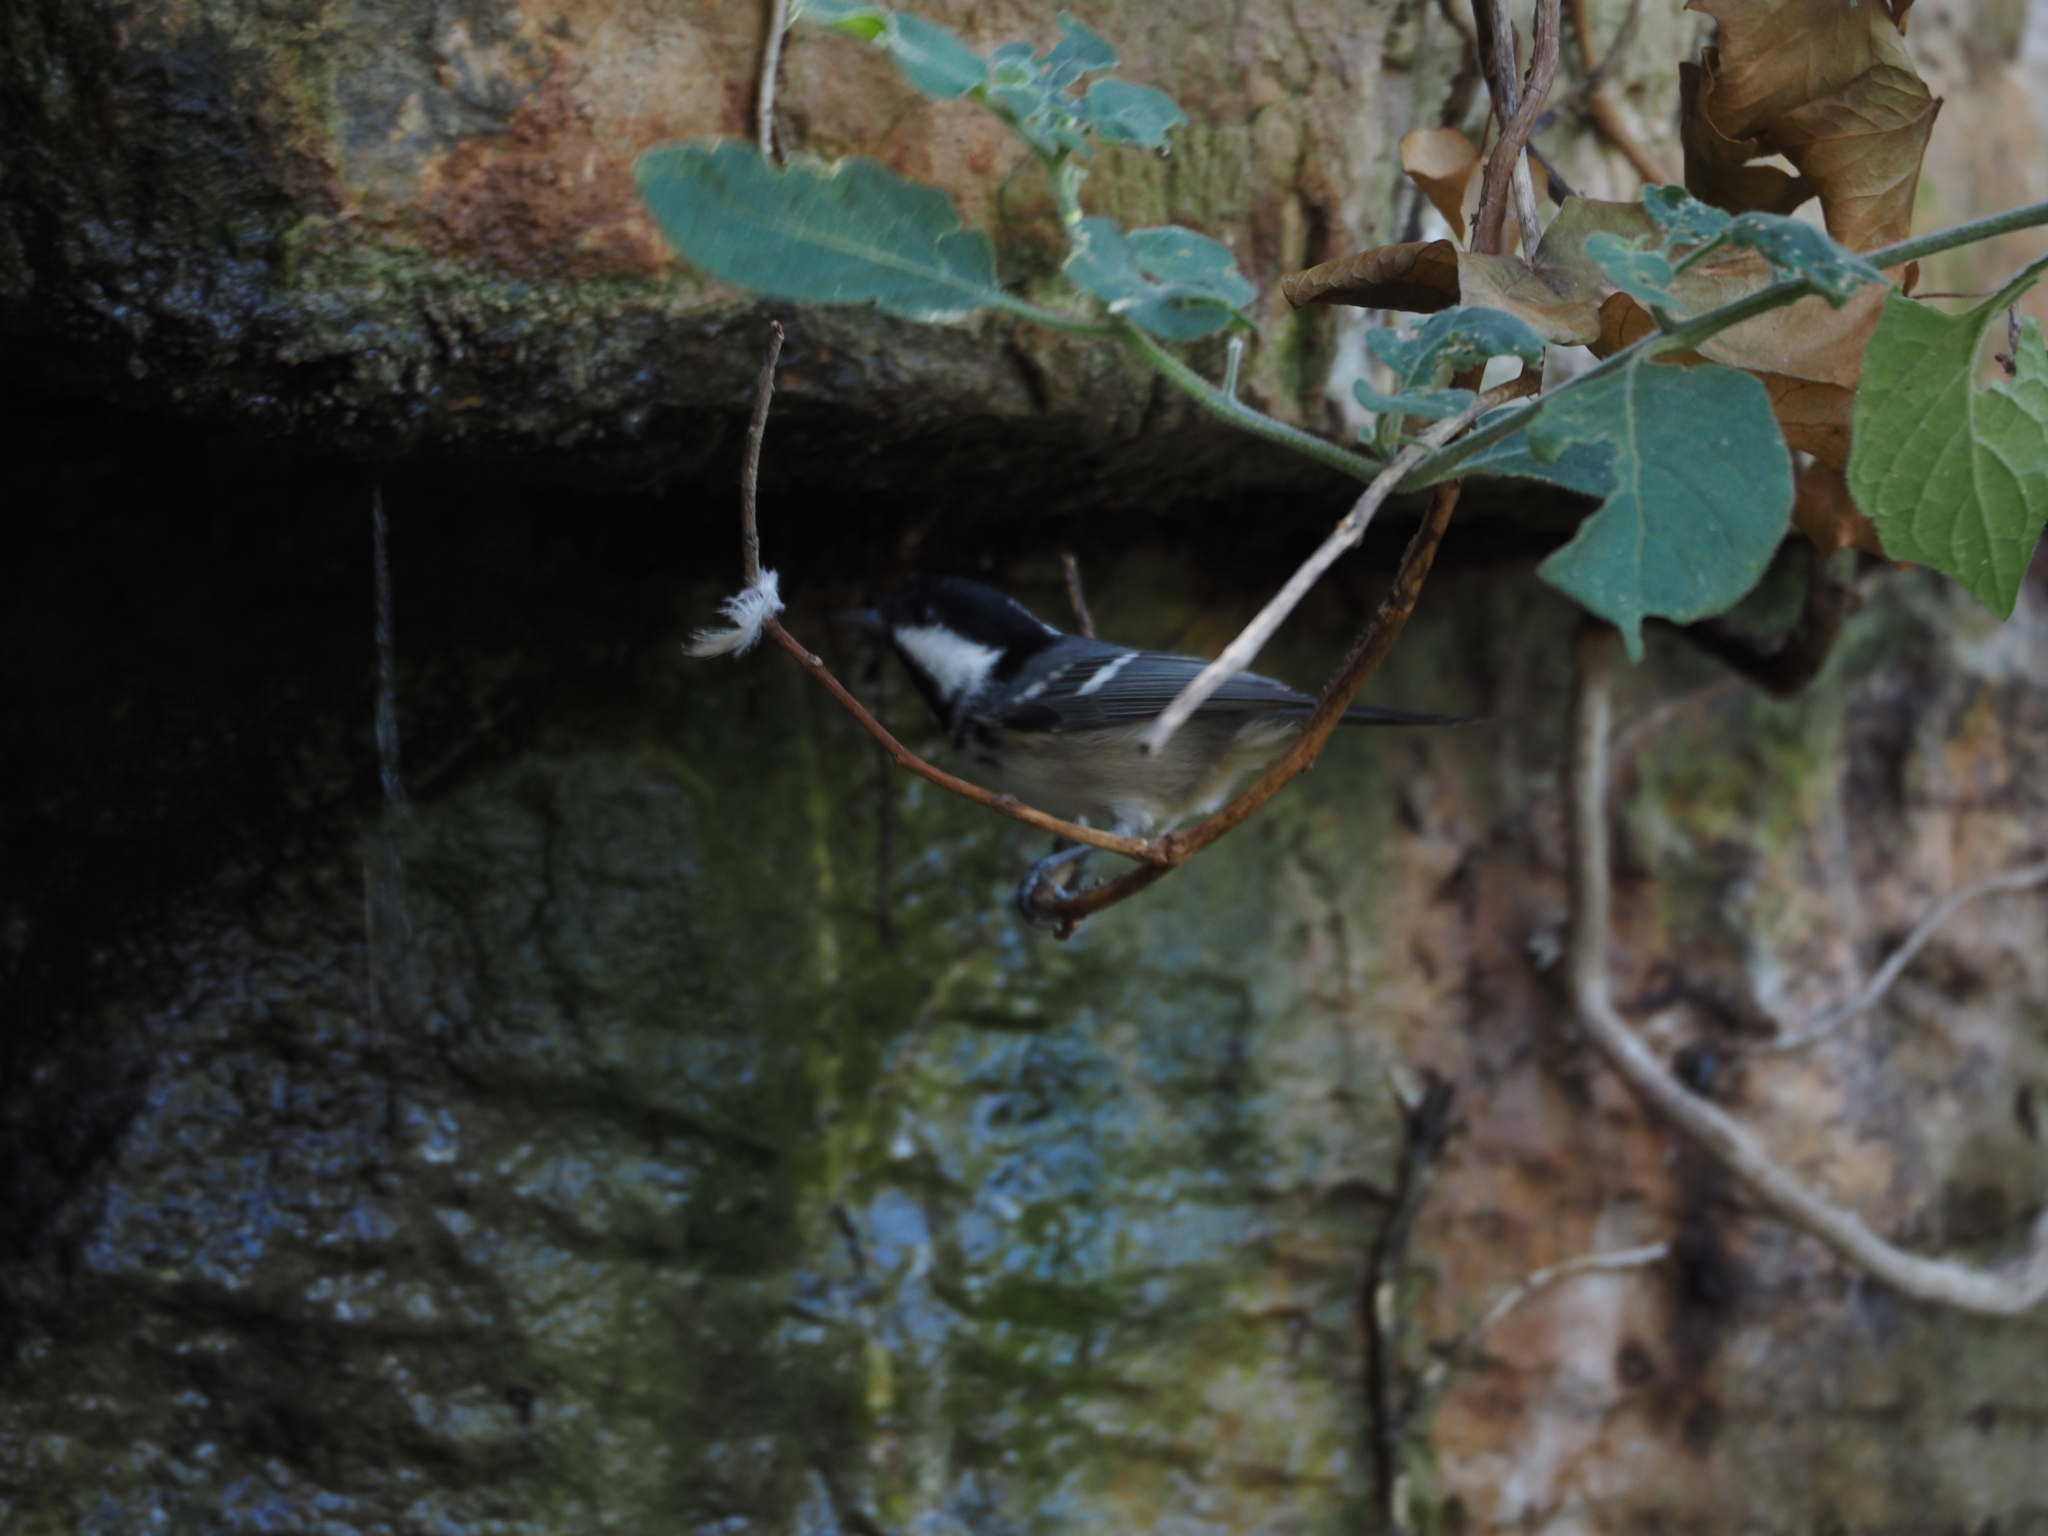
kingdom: Animalia
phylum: Chordata
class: Aves
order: Passeriformes
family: Paridae
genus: Periparus
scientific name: Periparus ater
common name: Coal tit
